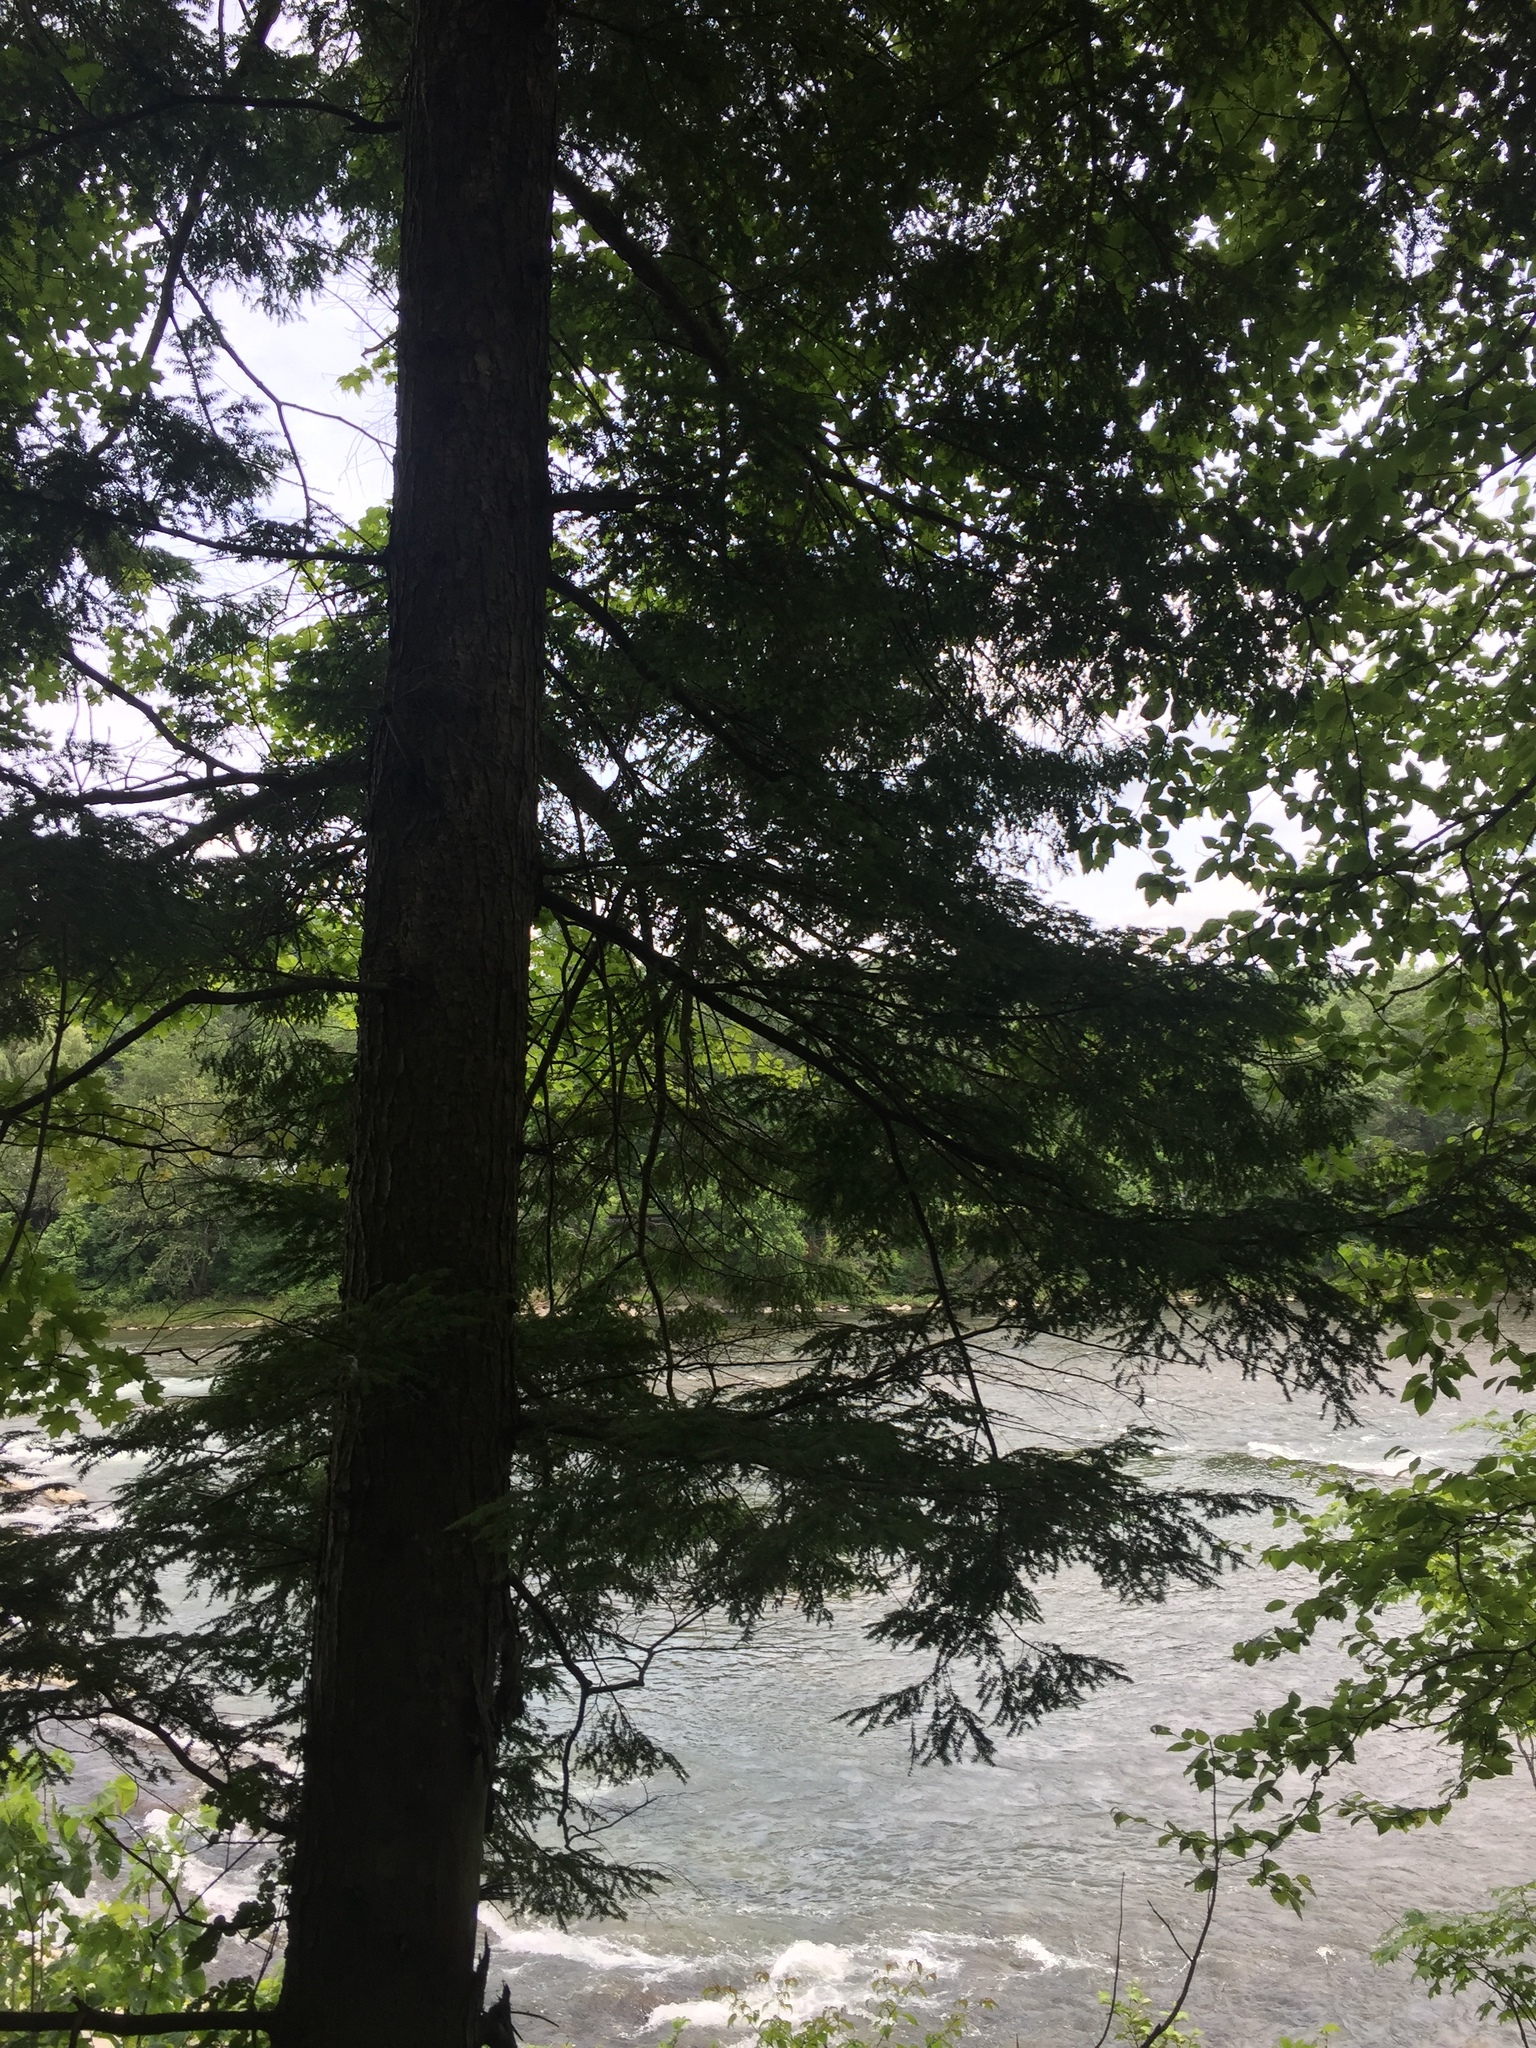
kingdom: Plantae
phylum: Tracheophyta
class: Pinopsida
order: Pinales
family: Pinaceae
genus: Tsuga
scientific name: Tsuga canadensis
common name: Eastern hemlock
